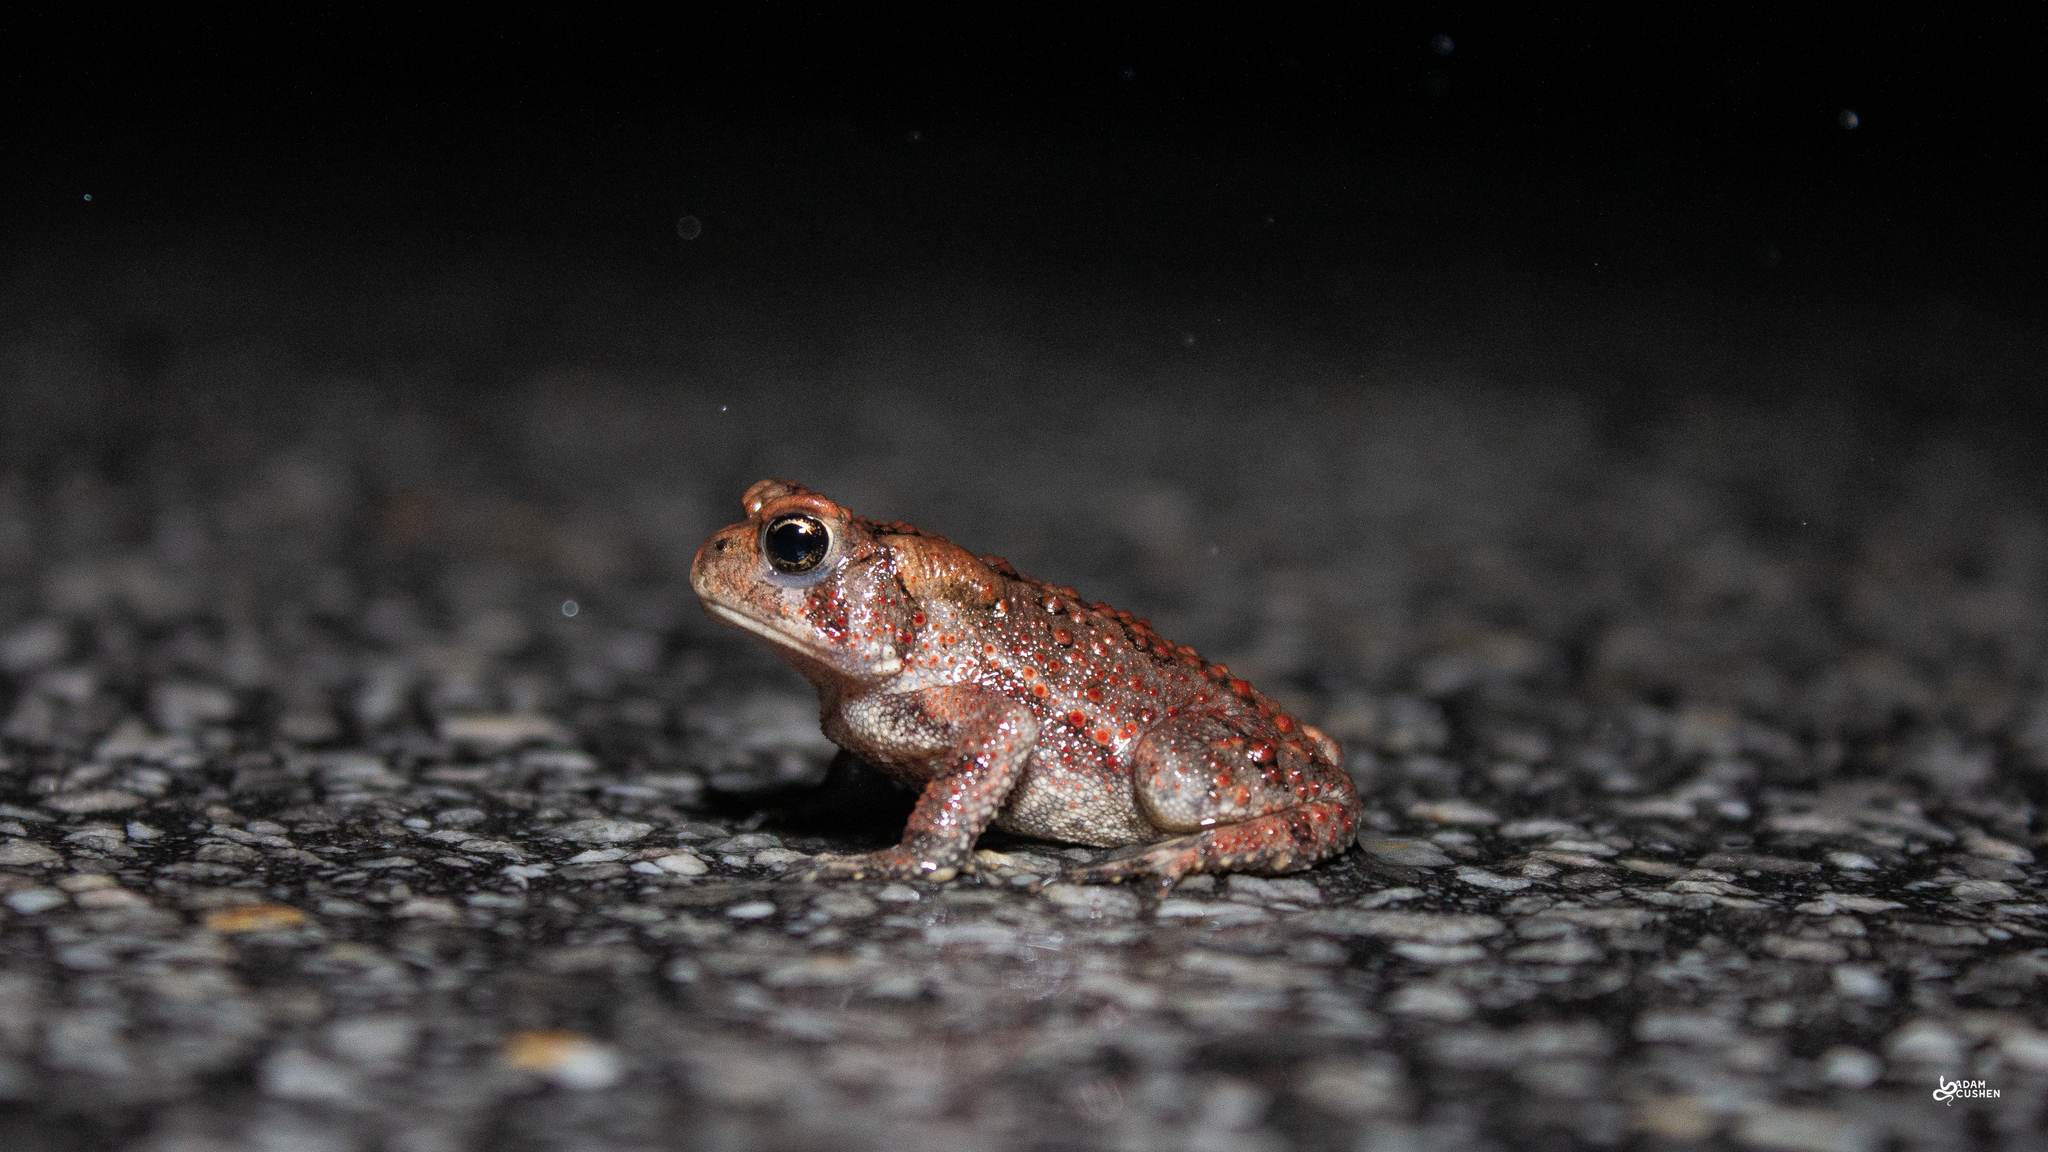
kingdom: Animalia
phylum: Chordata
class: Amphibia
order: Anura
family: Bufonidae
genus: Anaxyrus
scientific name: Anaxyrus americanus
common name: American toad
